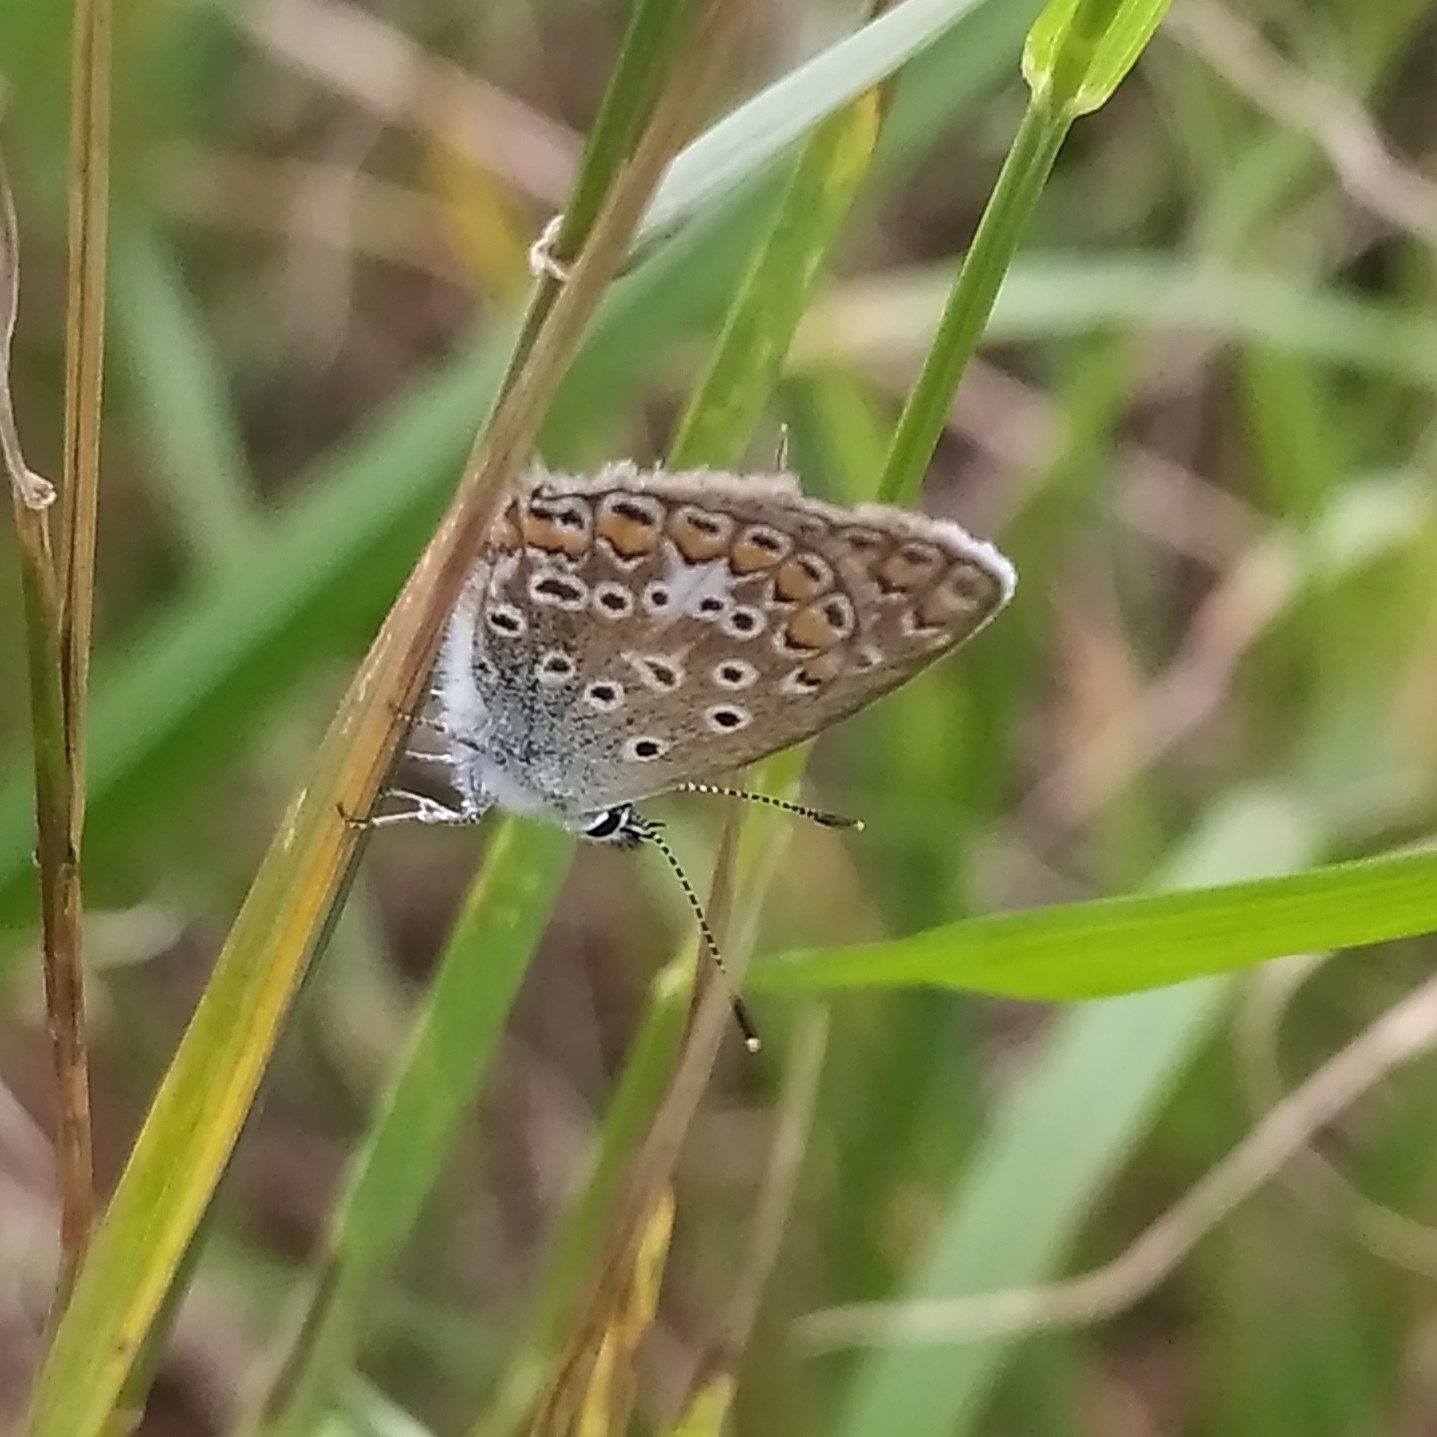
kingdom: Animalia
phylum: Arthropoda
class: Insecta
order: Lepidoptera
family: Lycaenidae
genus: Polyommatus
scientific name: Polyommatus icarus
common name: Common blue
